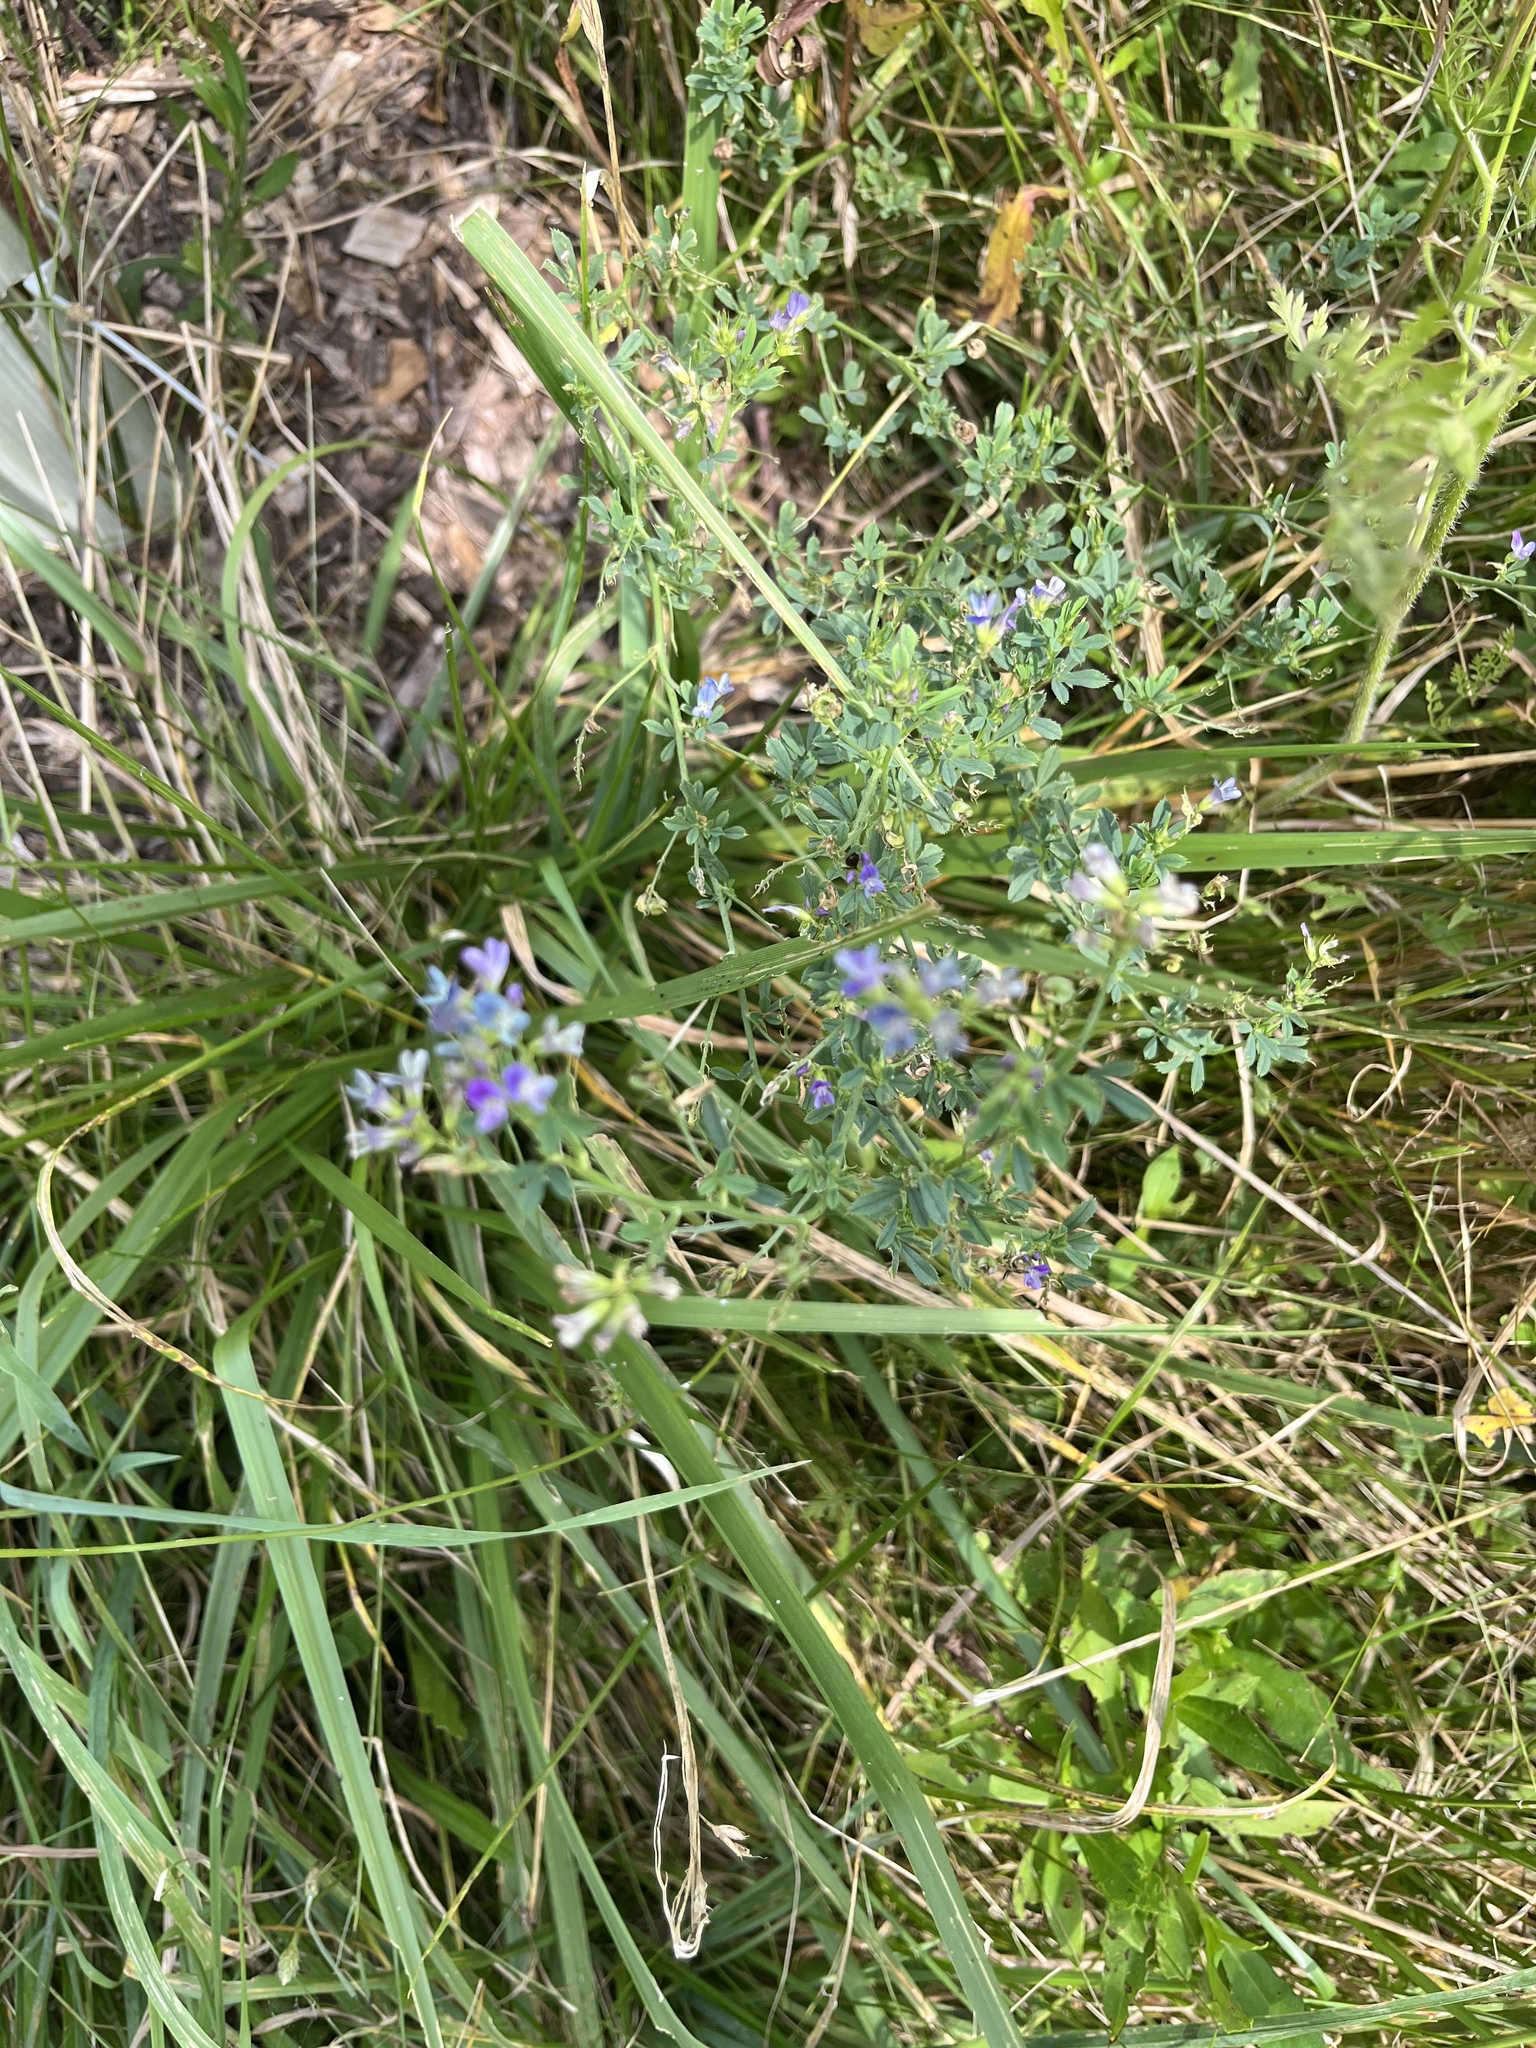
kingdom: Plantae
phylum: Tracheophyta
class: Magnoliopsida
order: Fabales
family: Fabaceae
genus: Medicago
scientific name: Medicago sativa
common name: Alfalfa
